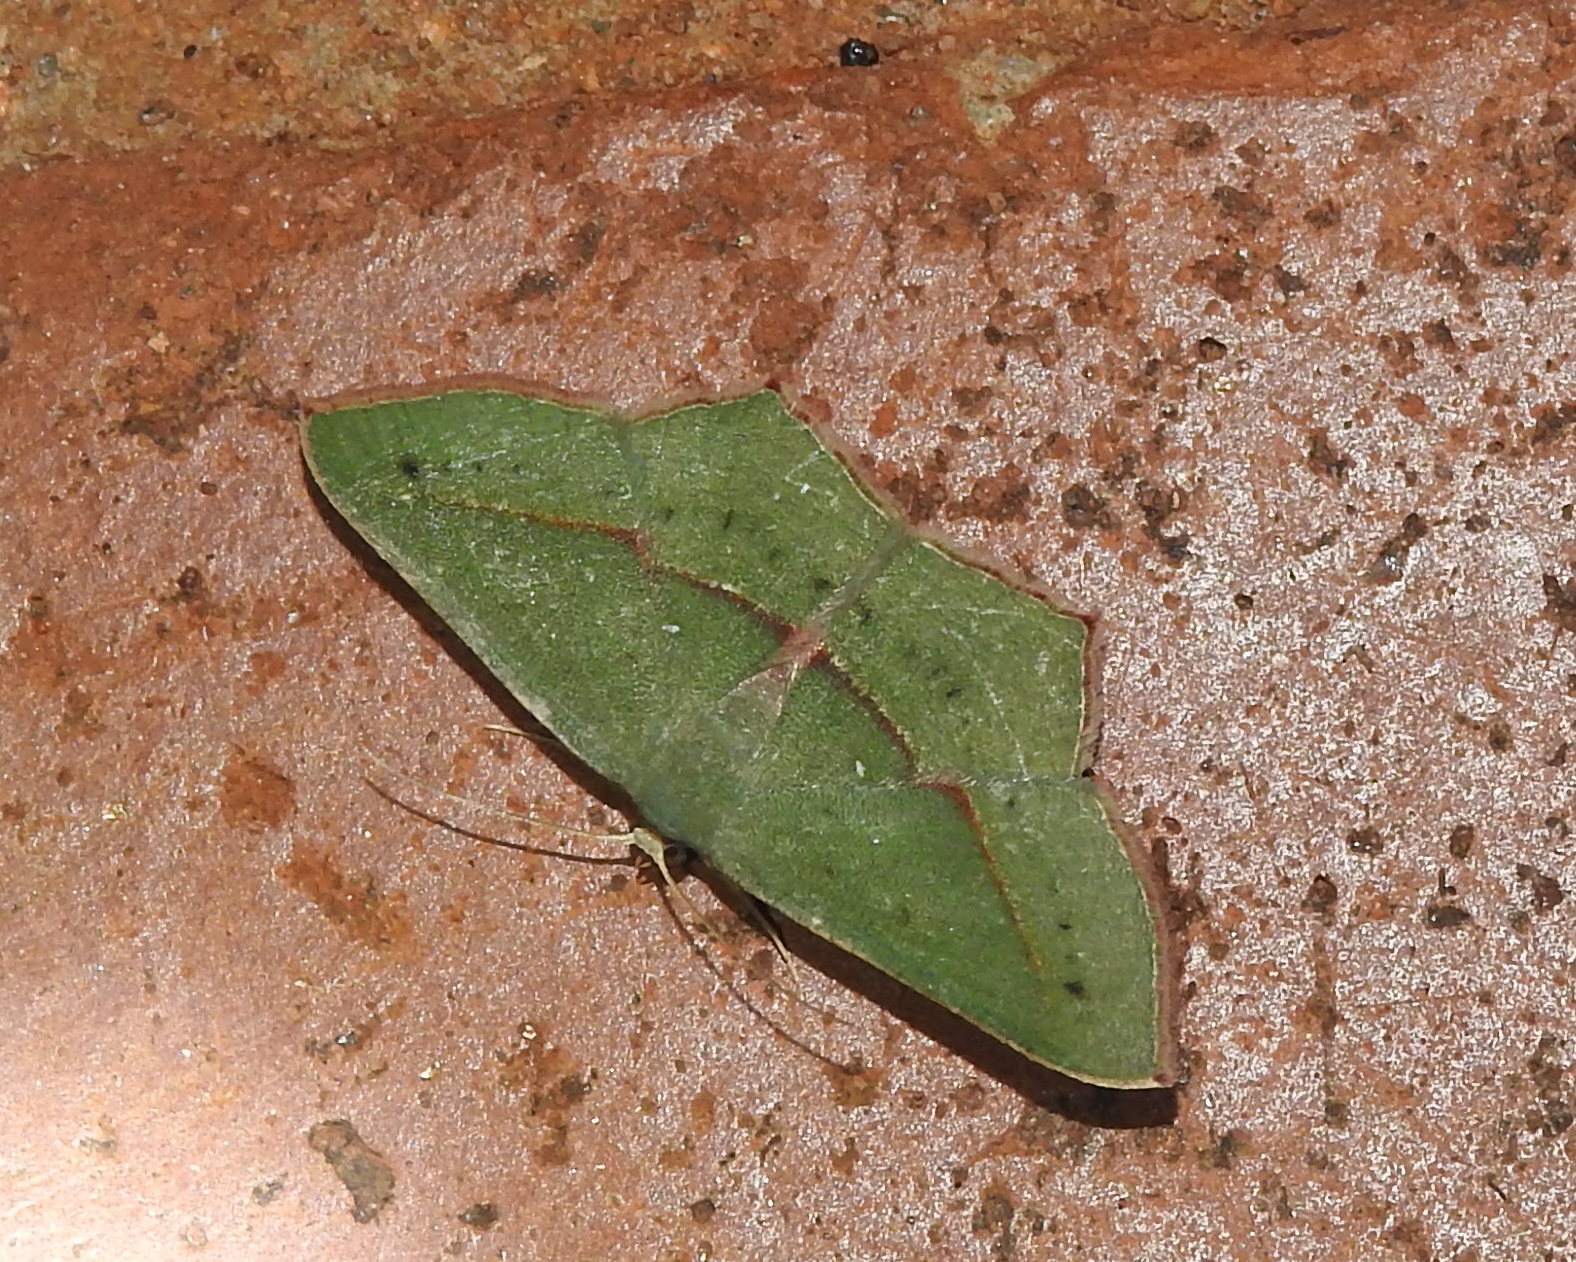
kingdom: Animalia
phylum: Arthropoda
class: Insecta
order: Lepidoptera
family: Geometridae
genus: Traminda
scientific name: Traminda mundissima
